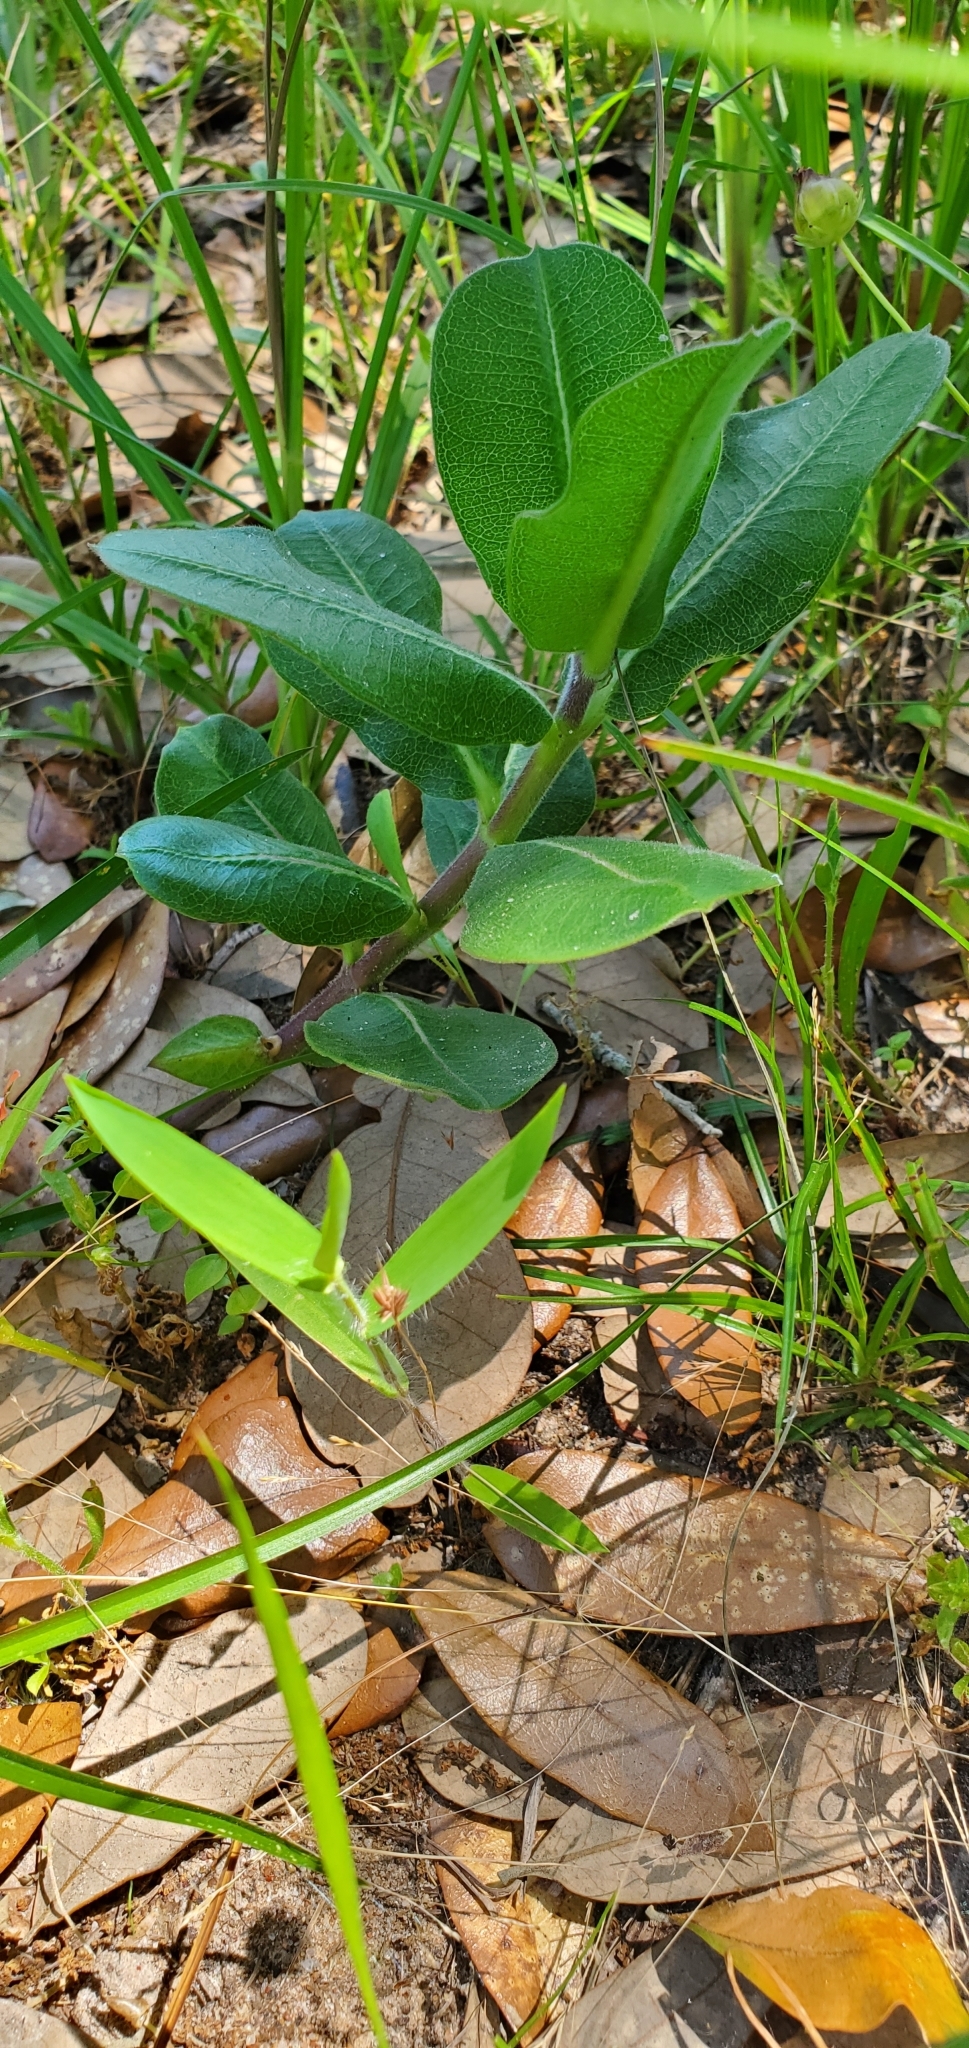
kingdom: Plantae
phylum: Tracheophyta
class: Magnoliopsida
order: Gentianales
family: Apocynaceae
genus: Asclepias
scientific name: Asclepias obovata
